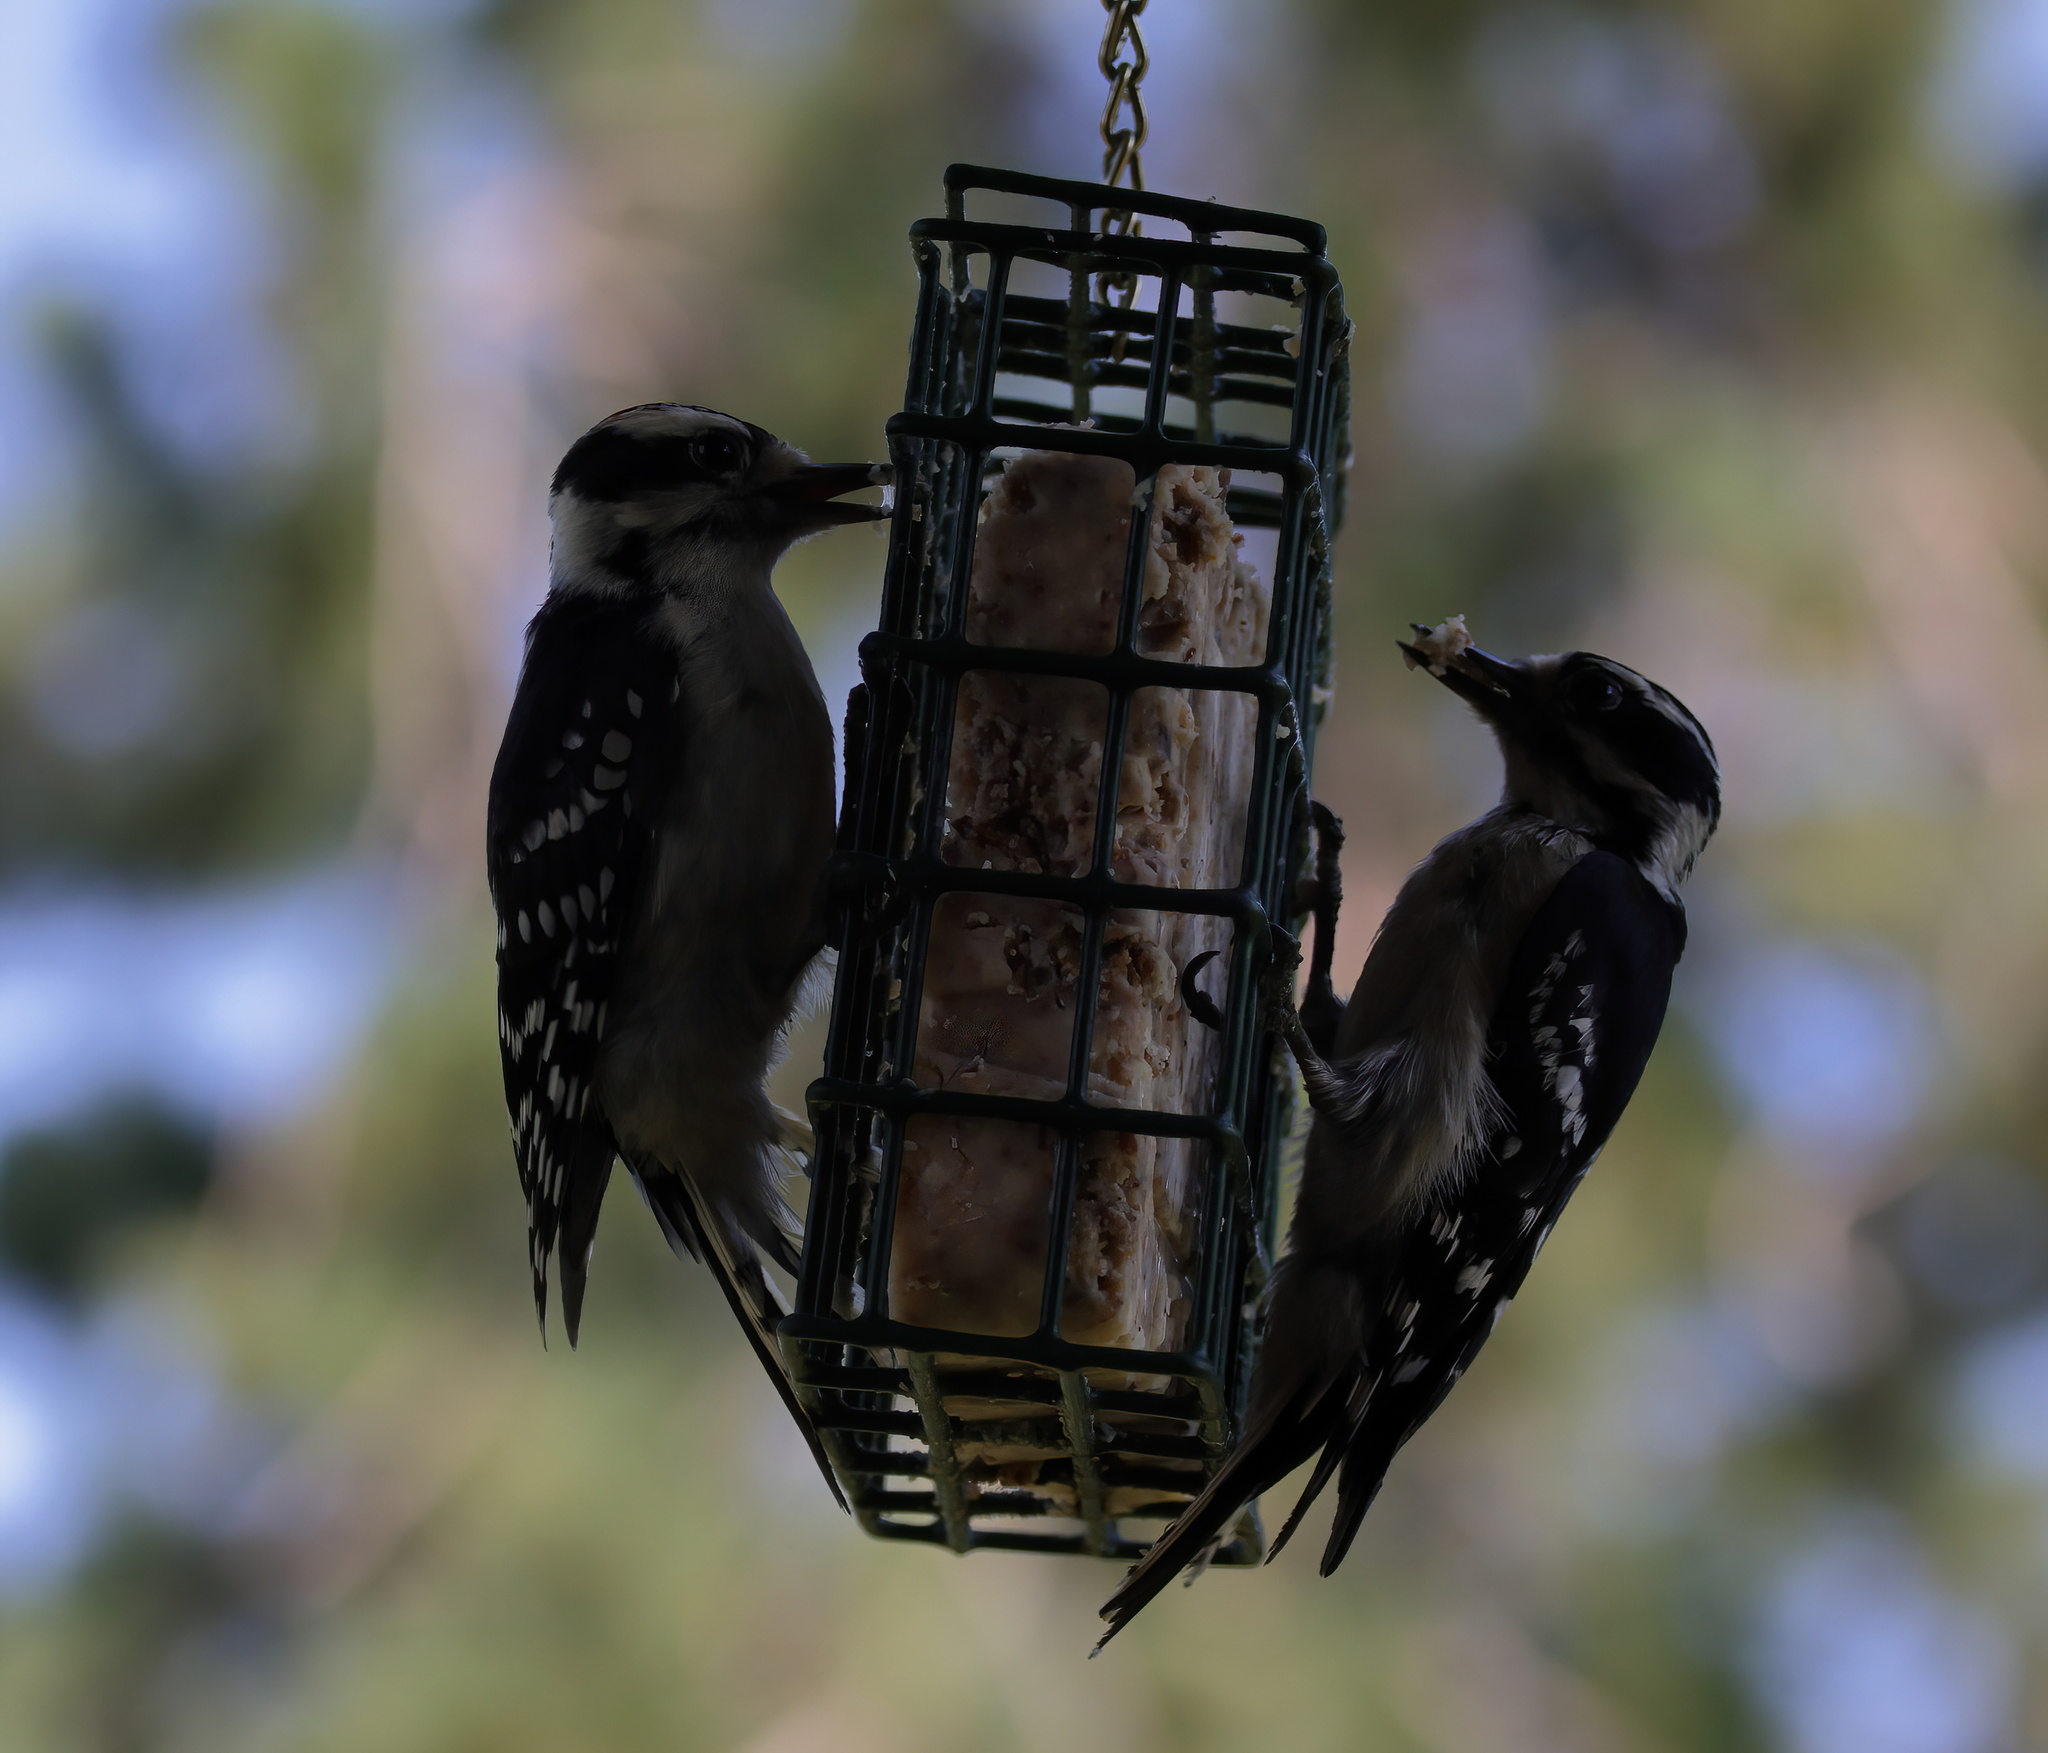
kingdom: Animalia
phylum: Chordata
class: Aves
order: Piciformes
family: Picidae
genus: Dryobates
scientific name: Dryobates pubescens
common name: Downy woodpecker
